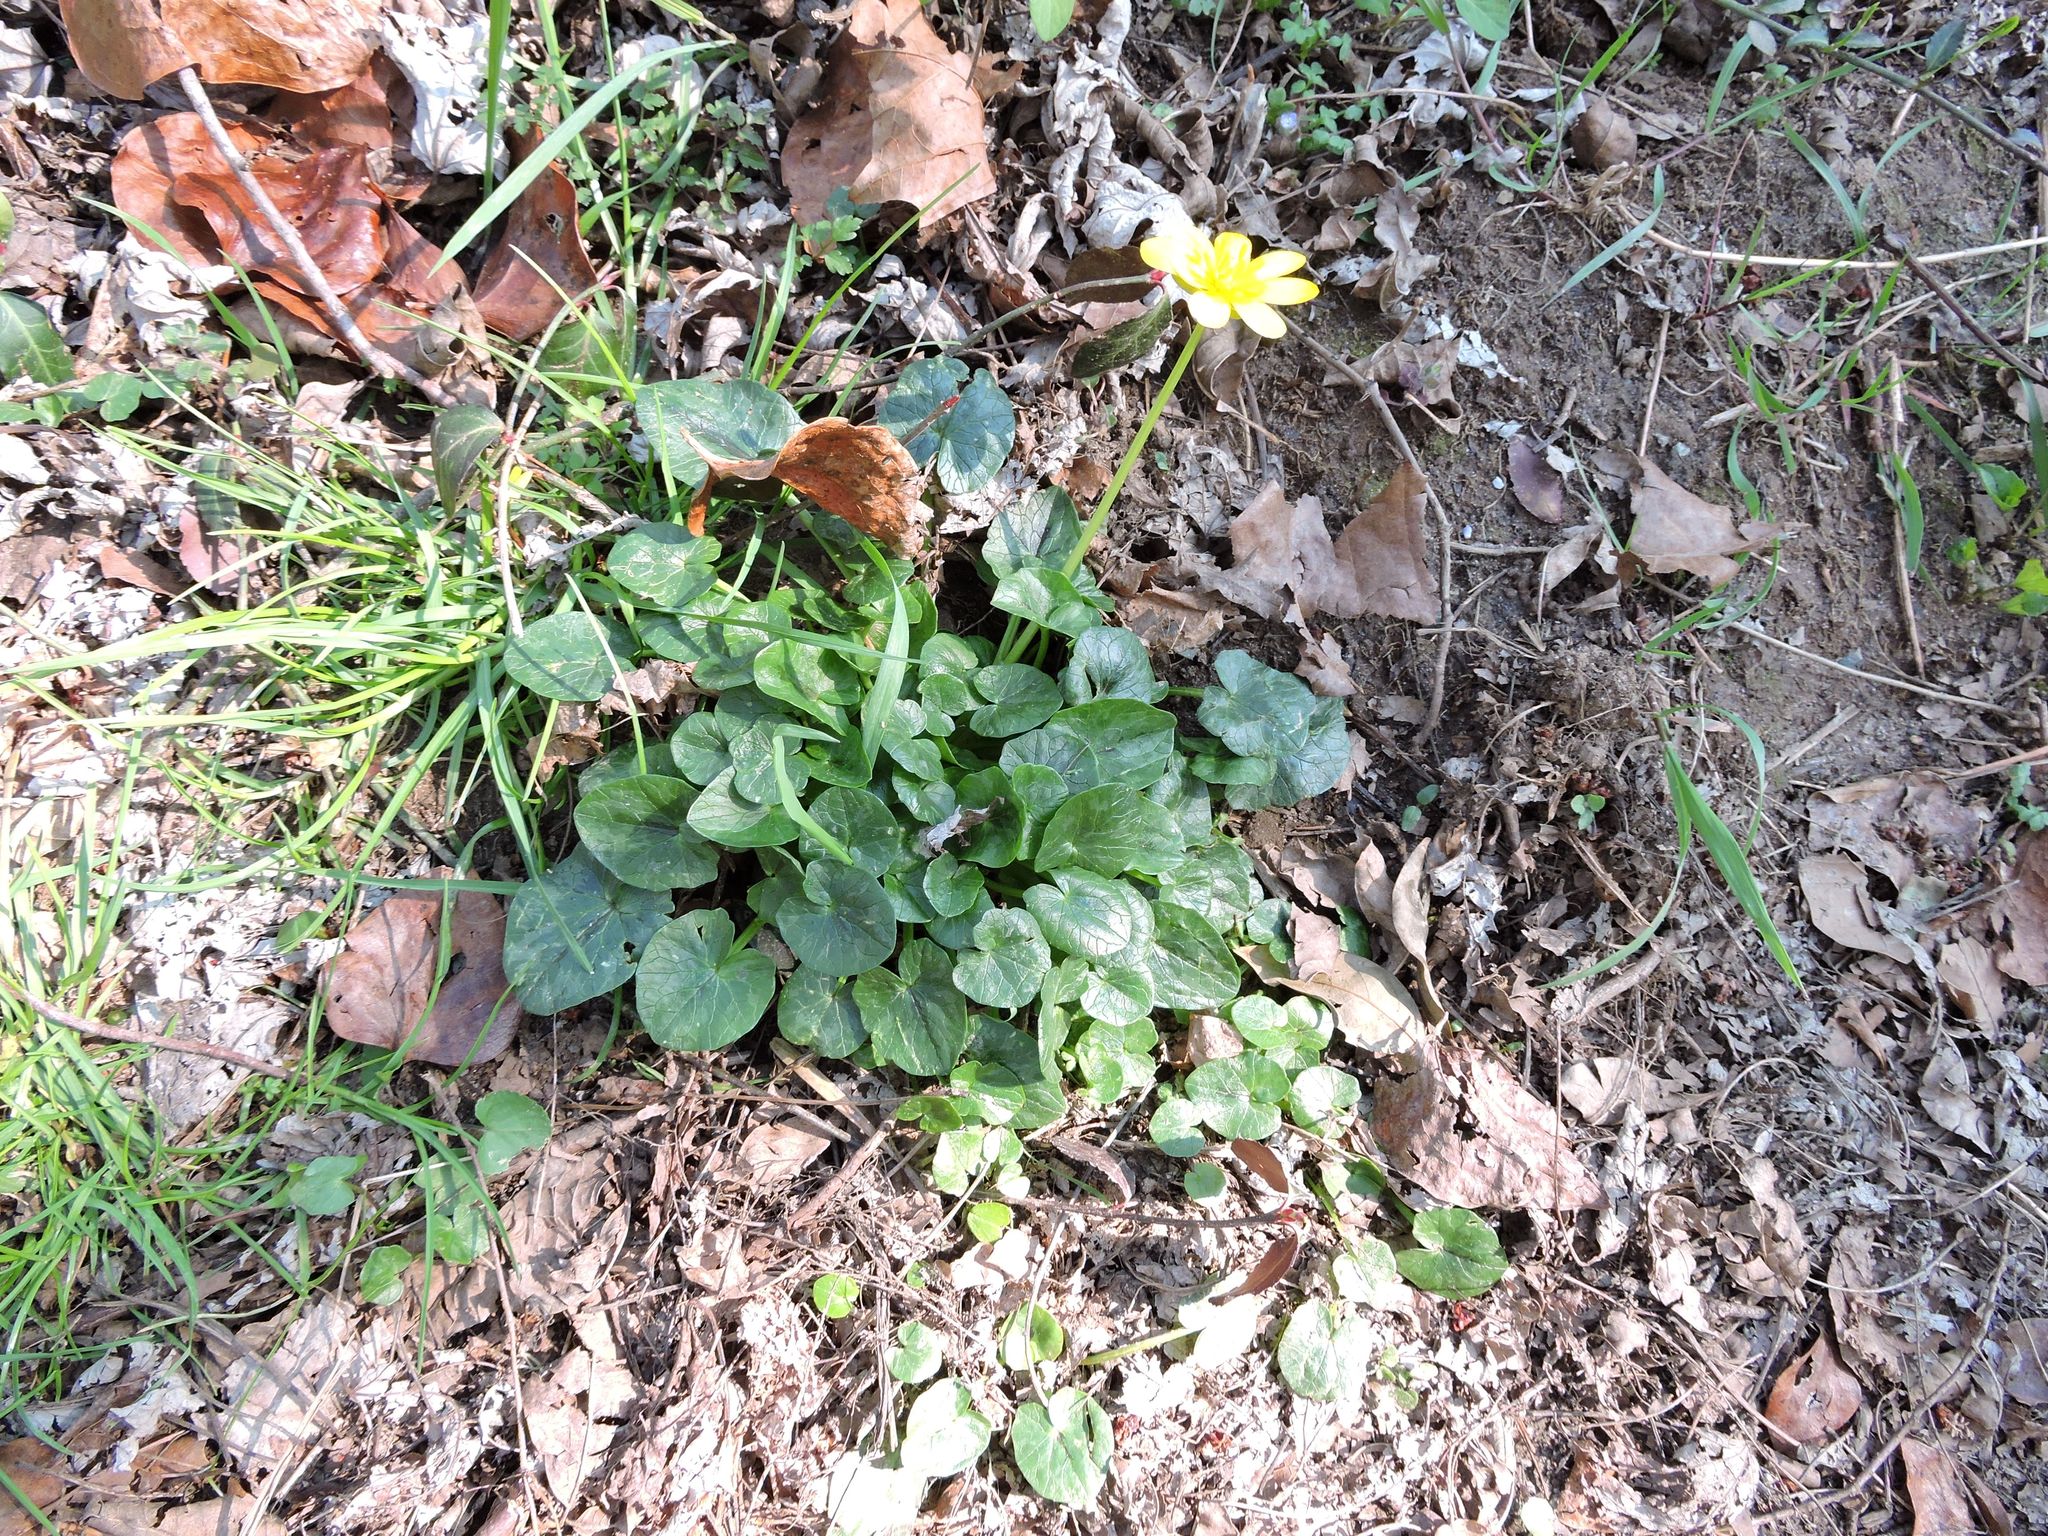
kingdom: Plantae
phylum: Tracheophyta
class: Magnoliopsida
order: Ranunculales
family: Ranunculaceae
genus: Ficaria
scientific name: Ficaria verna
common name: Lesser celandine
